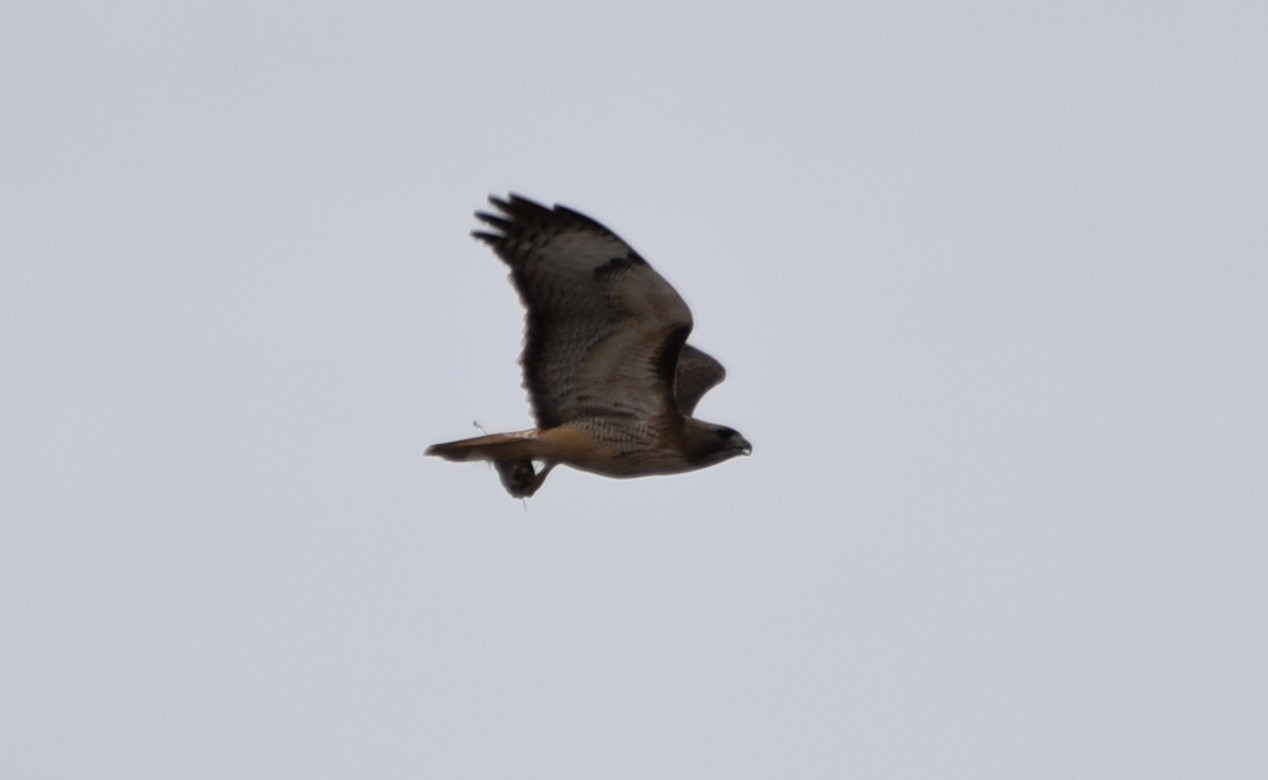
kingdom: Animalia
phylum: Chordata
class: Aves
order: Accipitriformes
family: Accipitridae
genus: Buteo
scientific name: Buteo jamaicensis
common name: Red-tailed hawk
